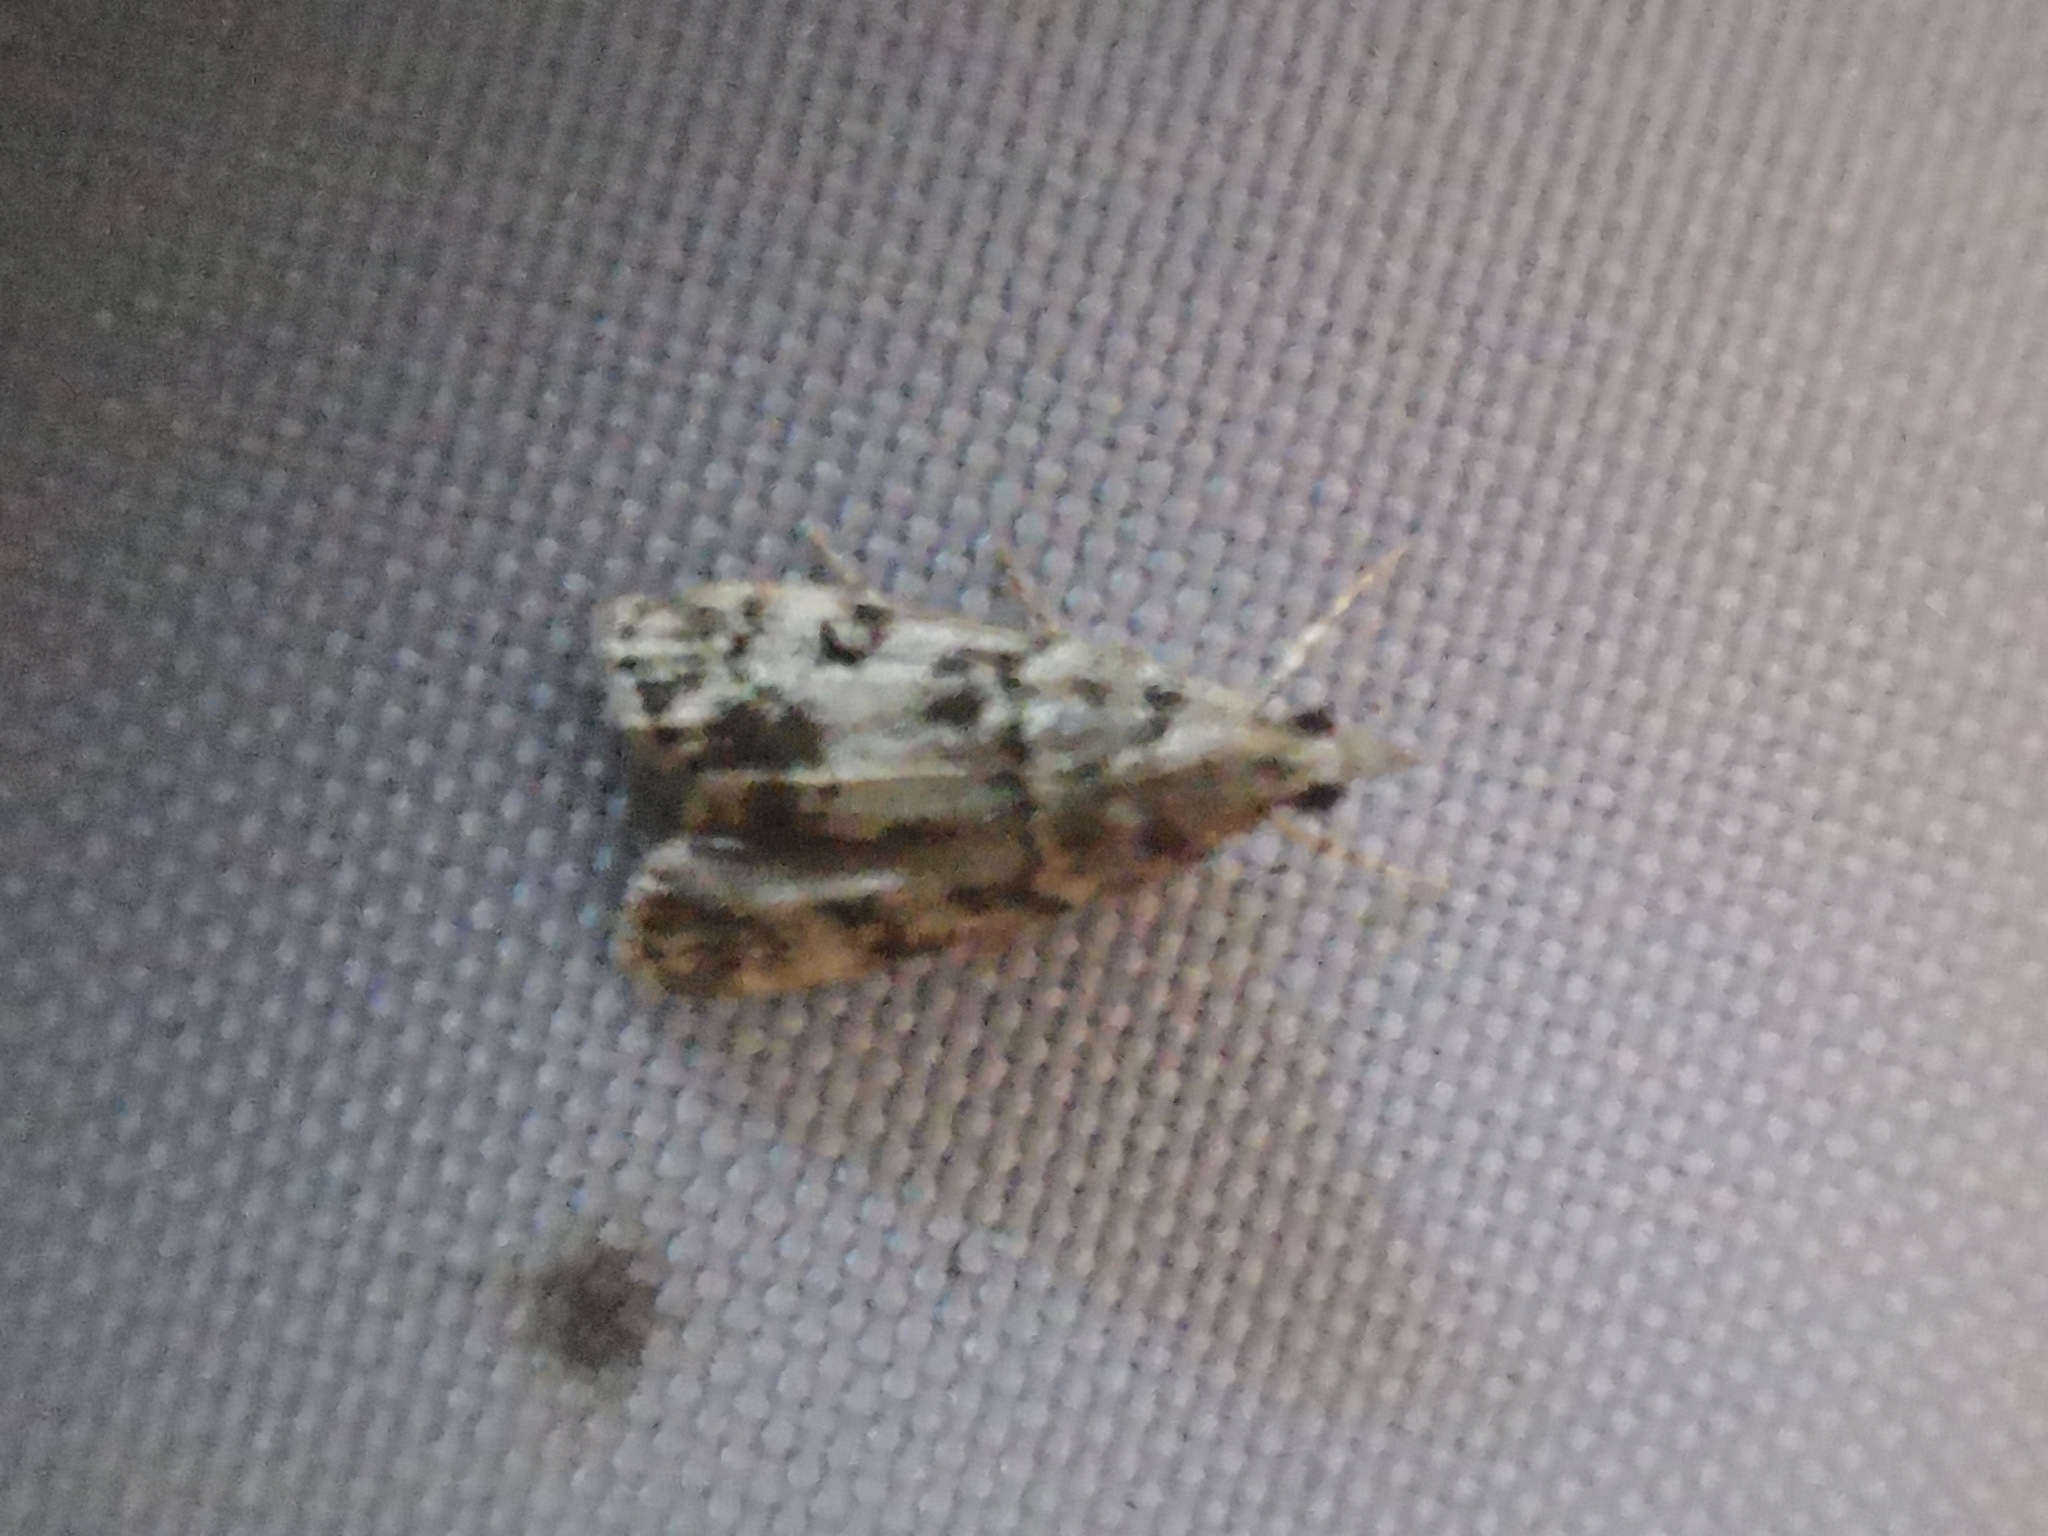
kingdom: Animalia
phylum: Arthropoda
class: Insecta
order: Lepidoptera
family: Crambidae
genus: Eudonia
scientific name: Eudonia lacustrata
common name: Little grey
